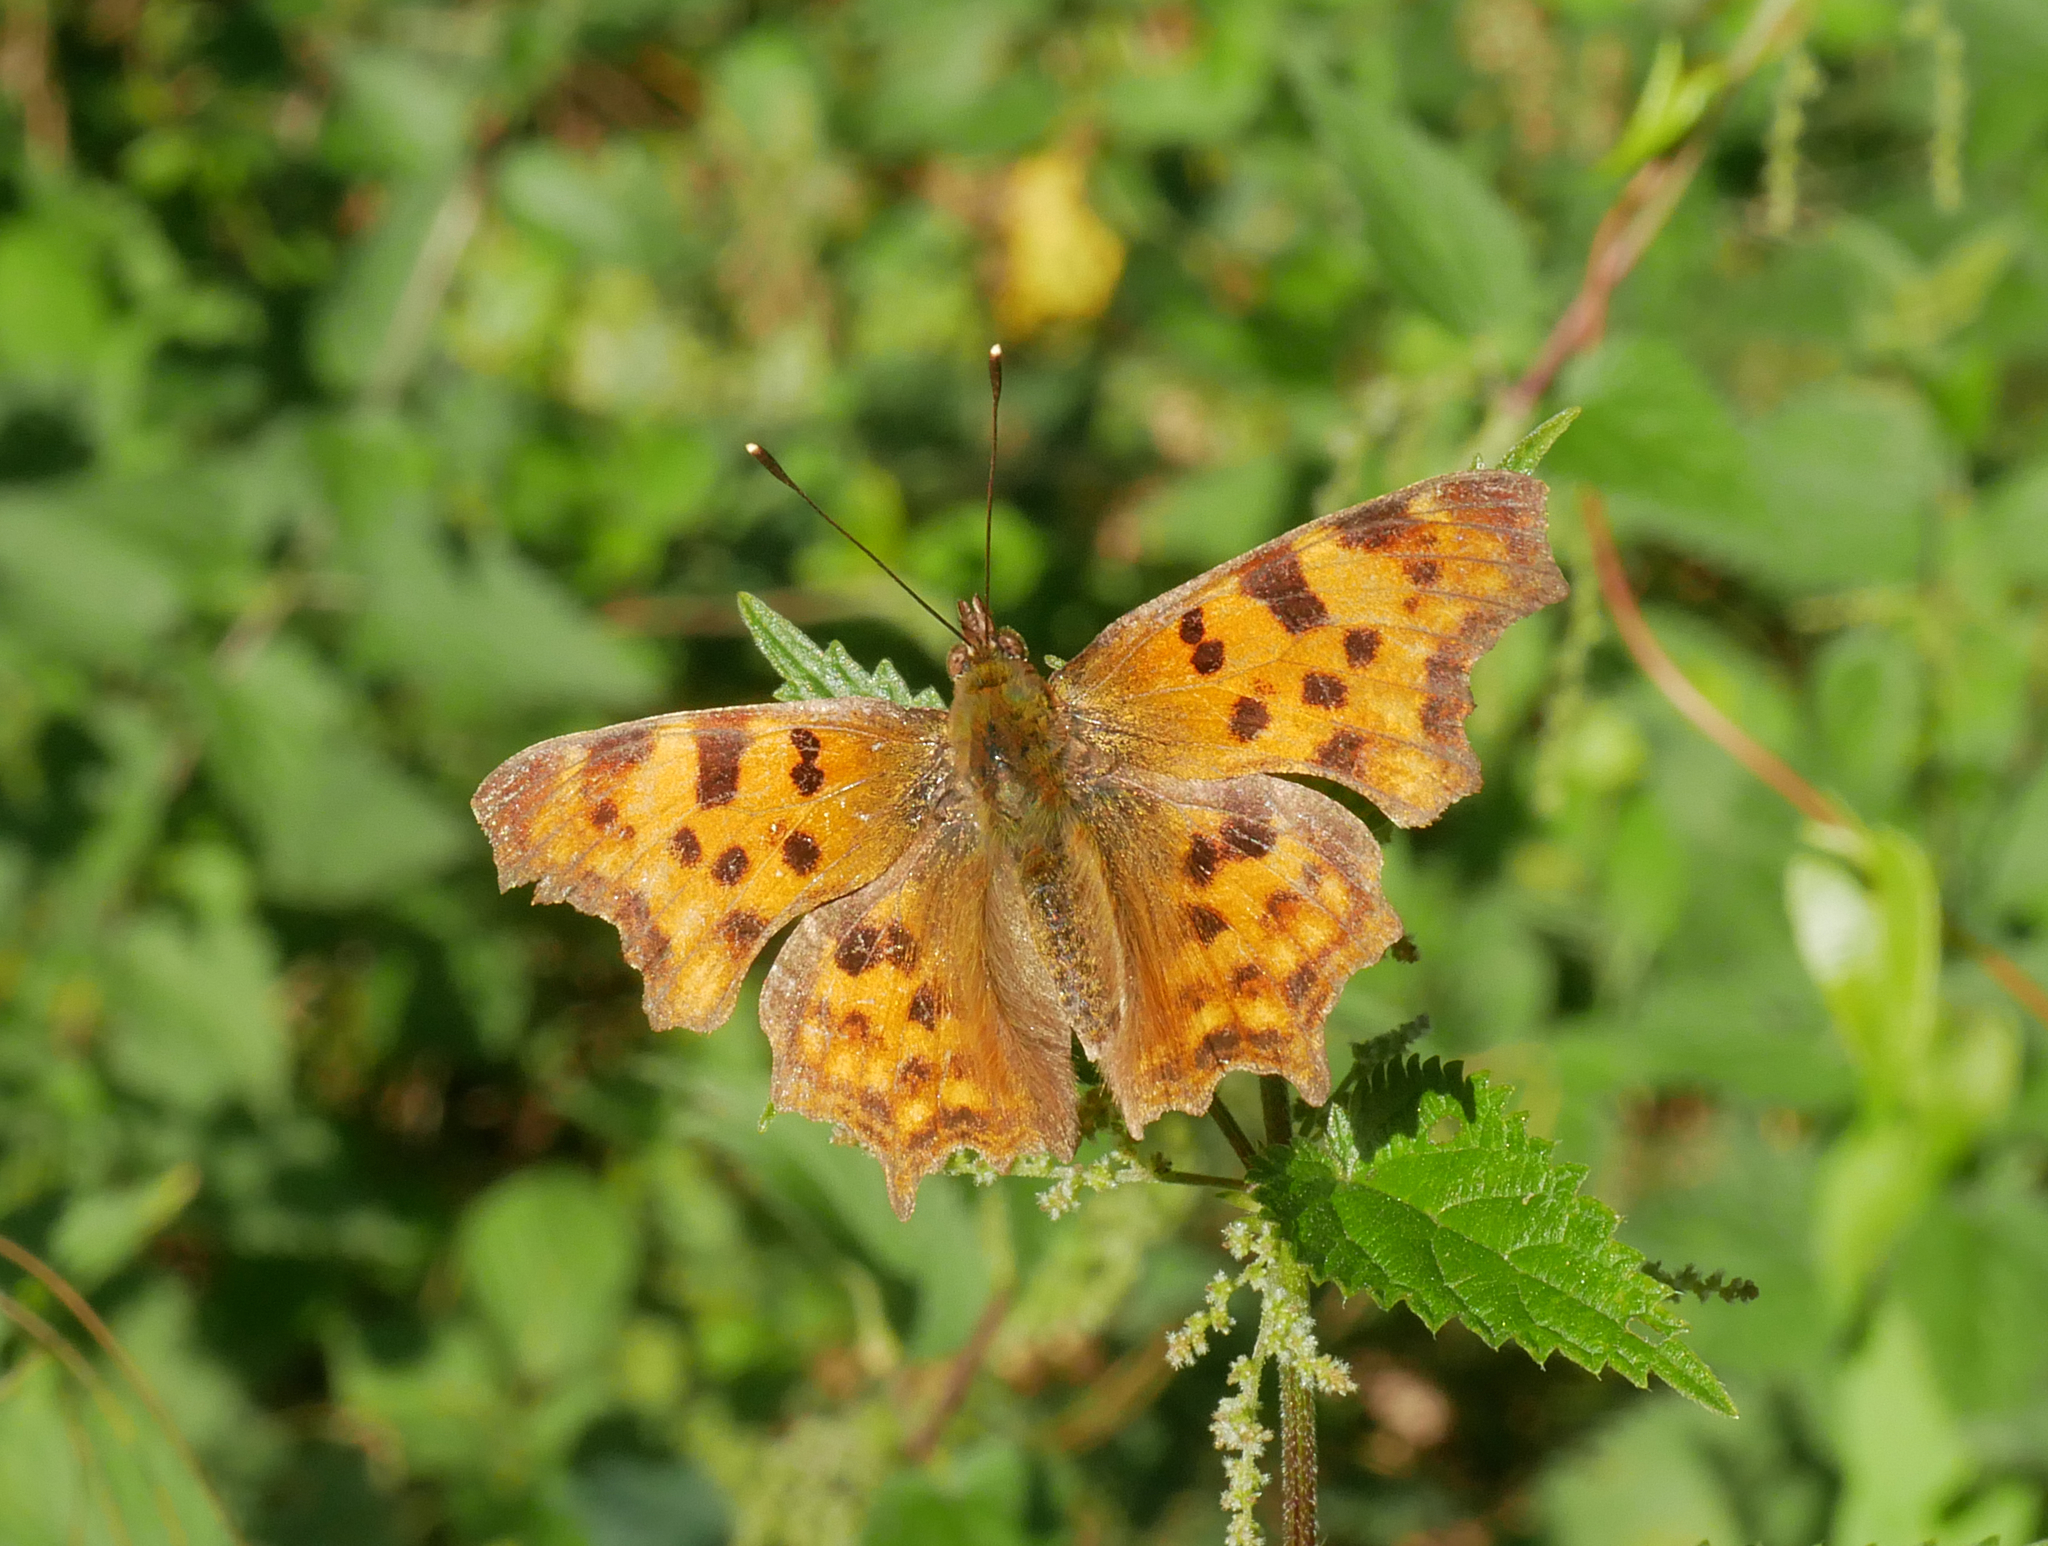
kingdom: Animalia
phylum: Arthropoda
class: Insecta
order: Lepidoptera
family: Nymphalidae
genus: Polygonia
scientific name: Polygonia c-album
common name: Comma
